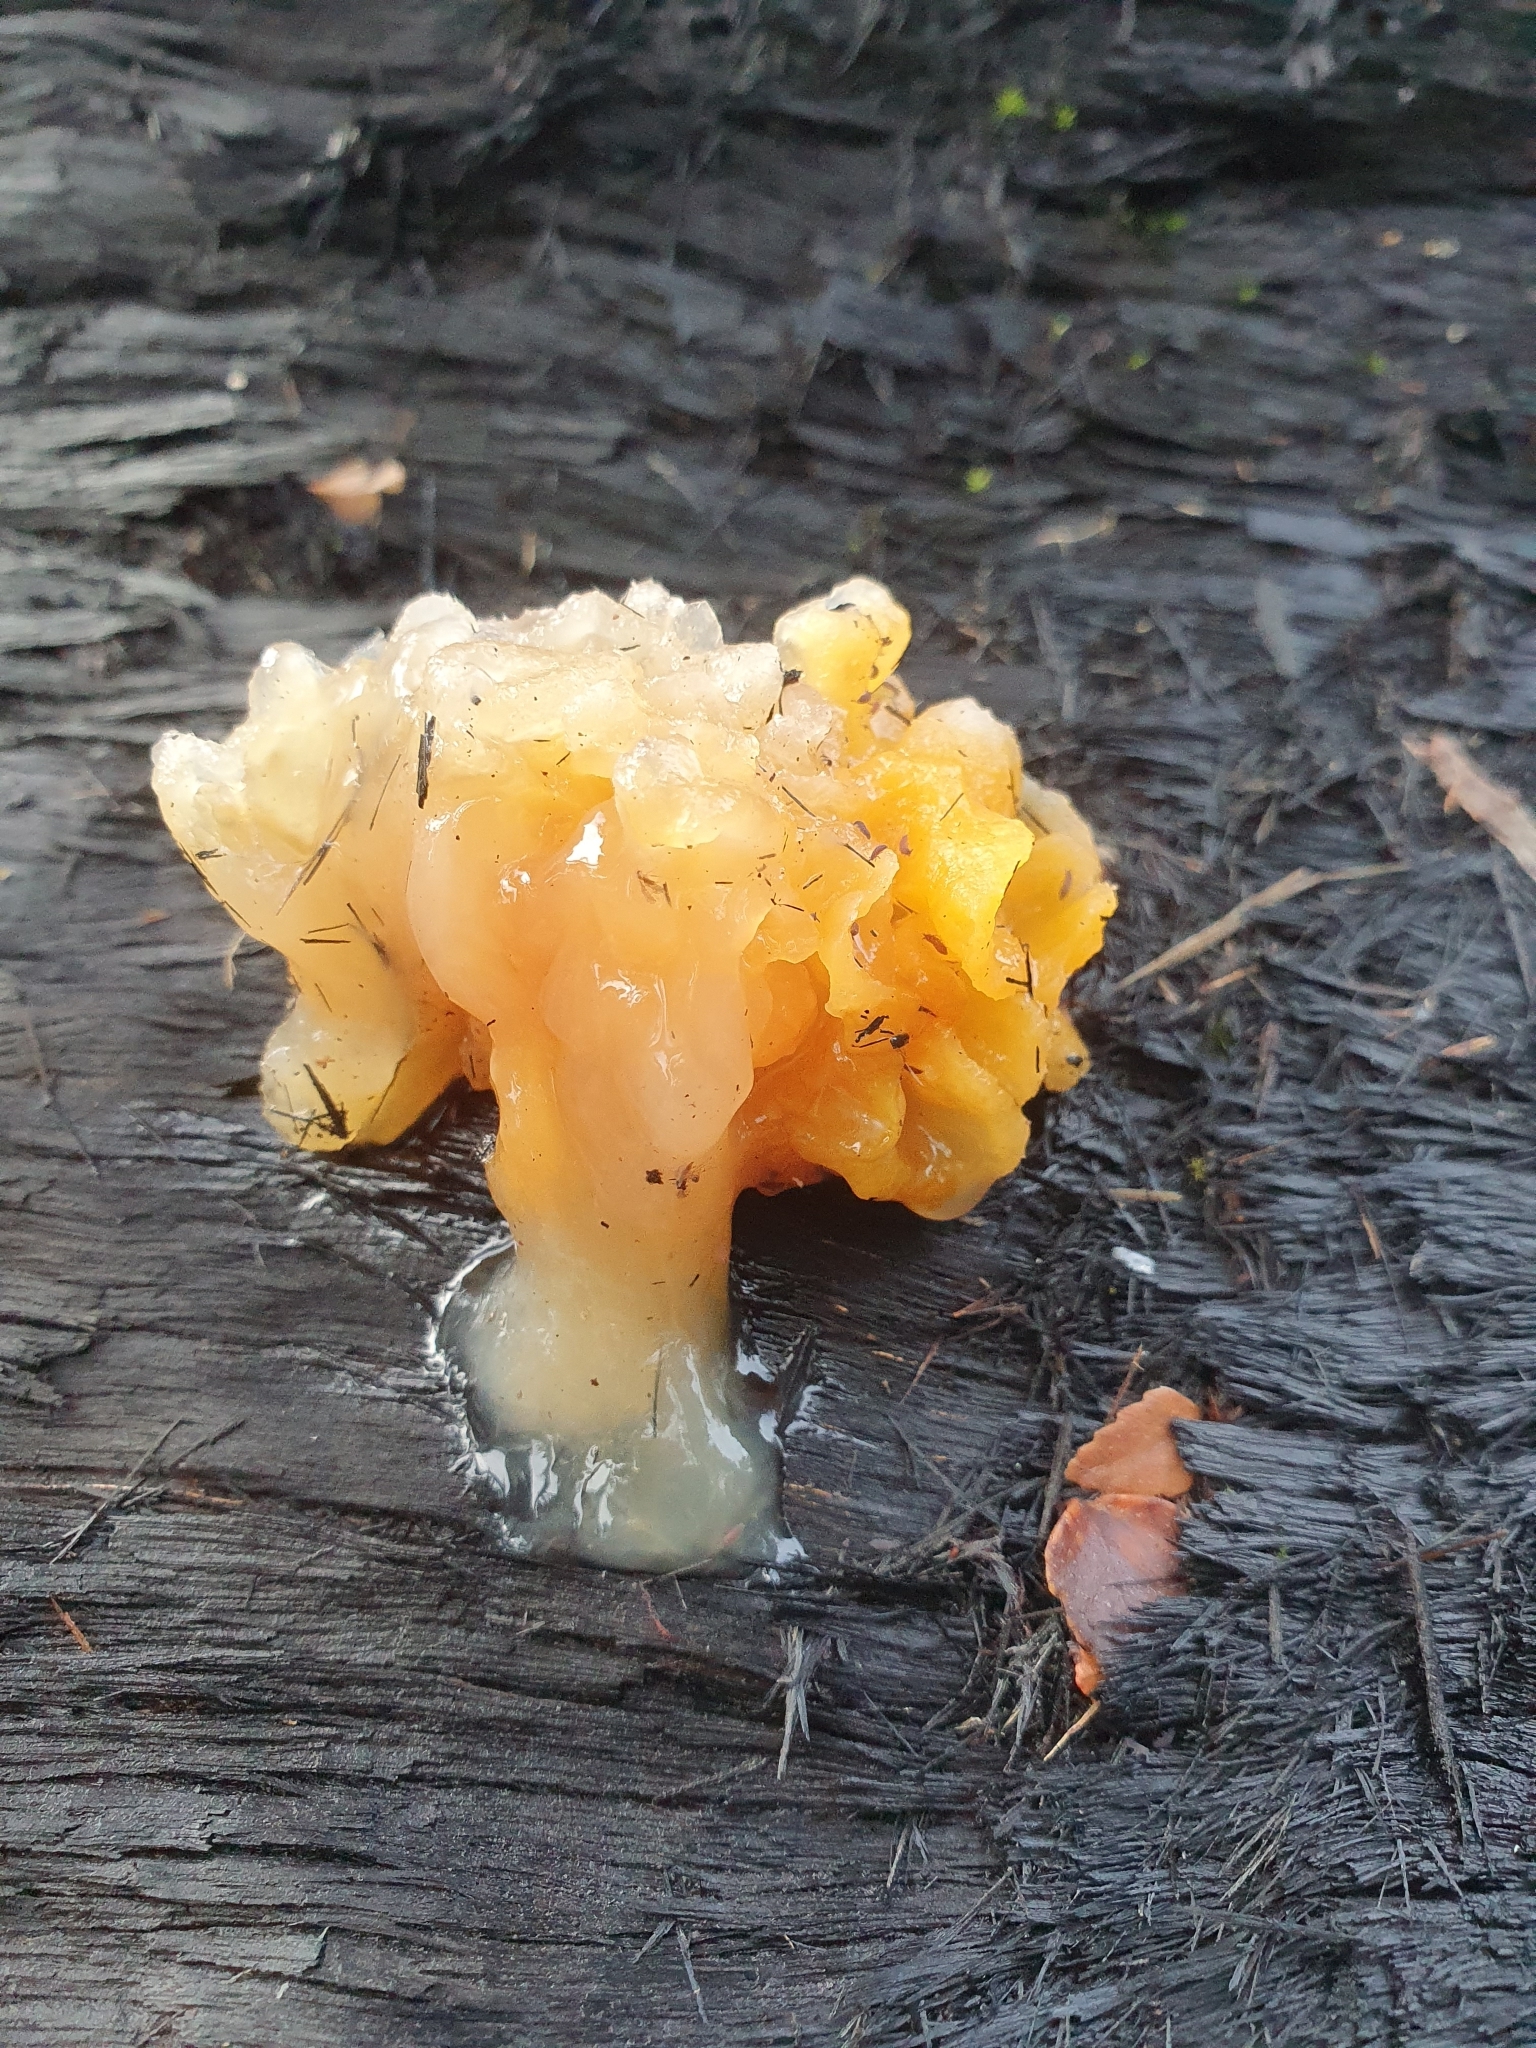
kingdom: Fungi
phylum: Basidiomycota
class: Tremellomycetes
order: Tremellales
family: Tremellaceae
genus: Tremella
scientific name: Tremella mesenterica
